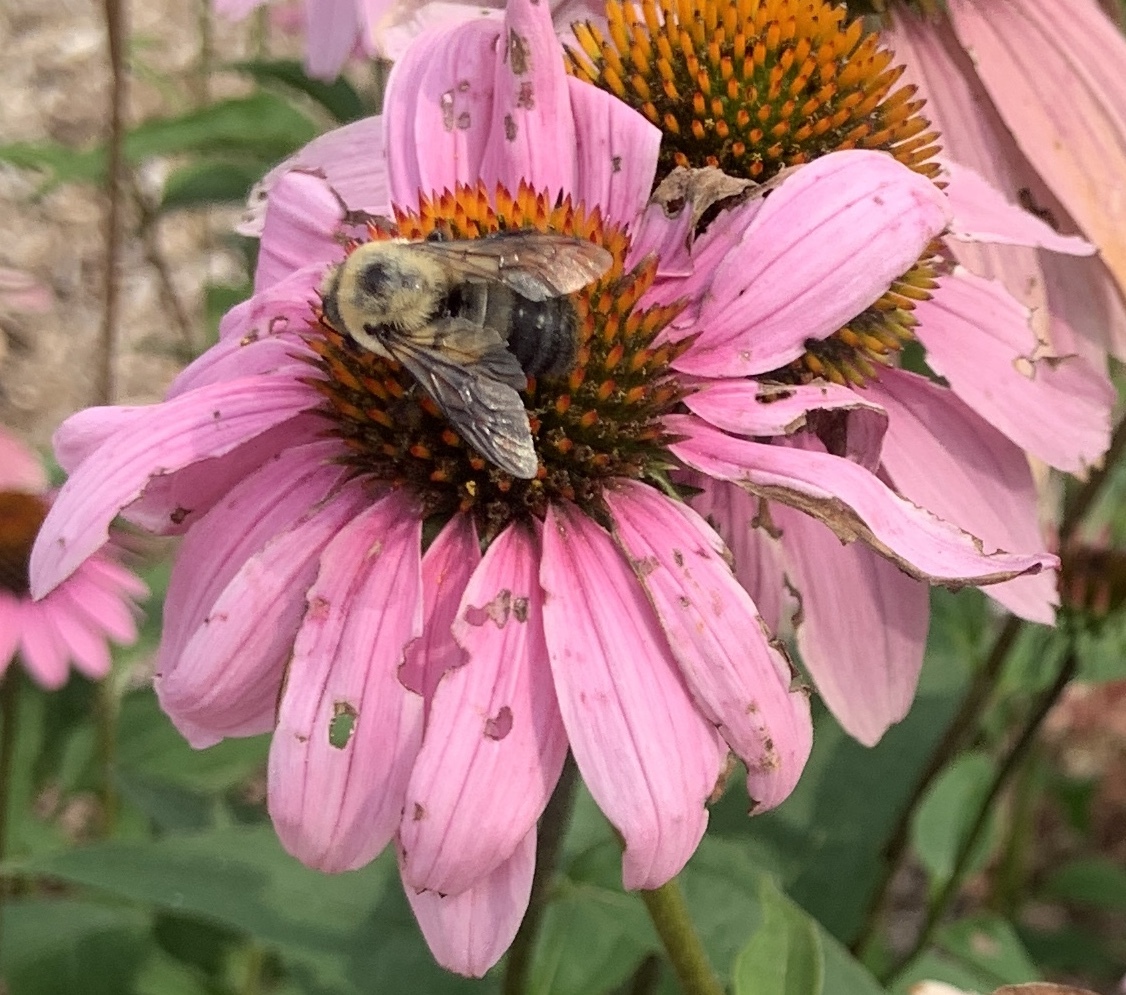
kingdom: Animalia
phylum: Arthropoda
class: Insecta
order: Hymenoptera
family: Apidae
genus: Bombus
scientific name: Bombus griseocollis
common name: Brown-belted bumble bee
